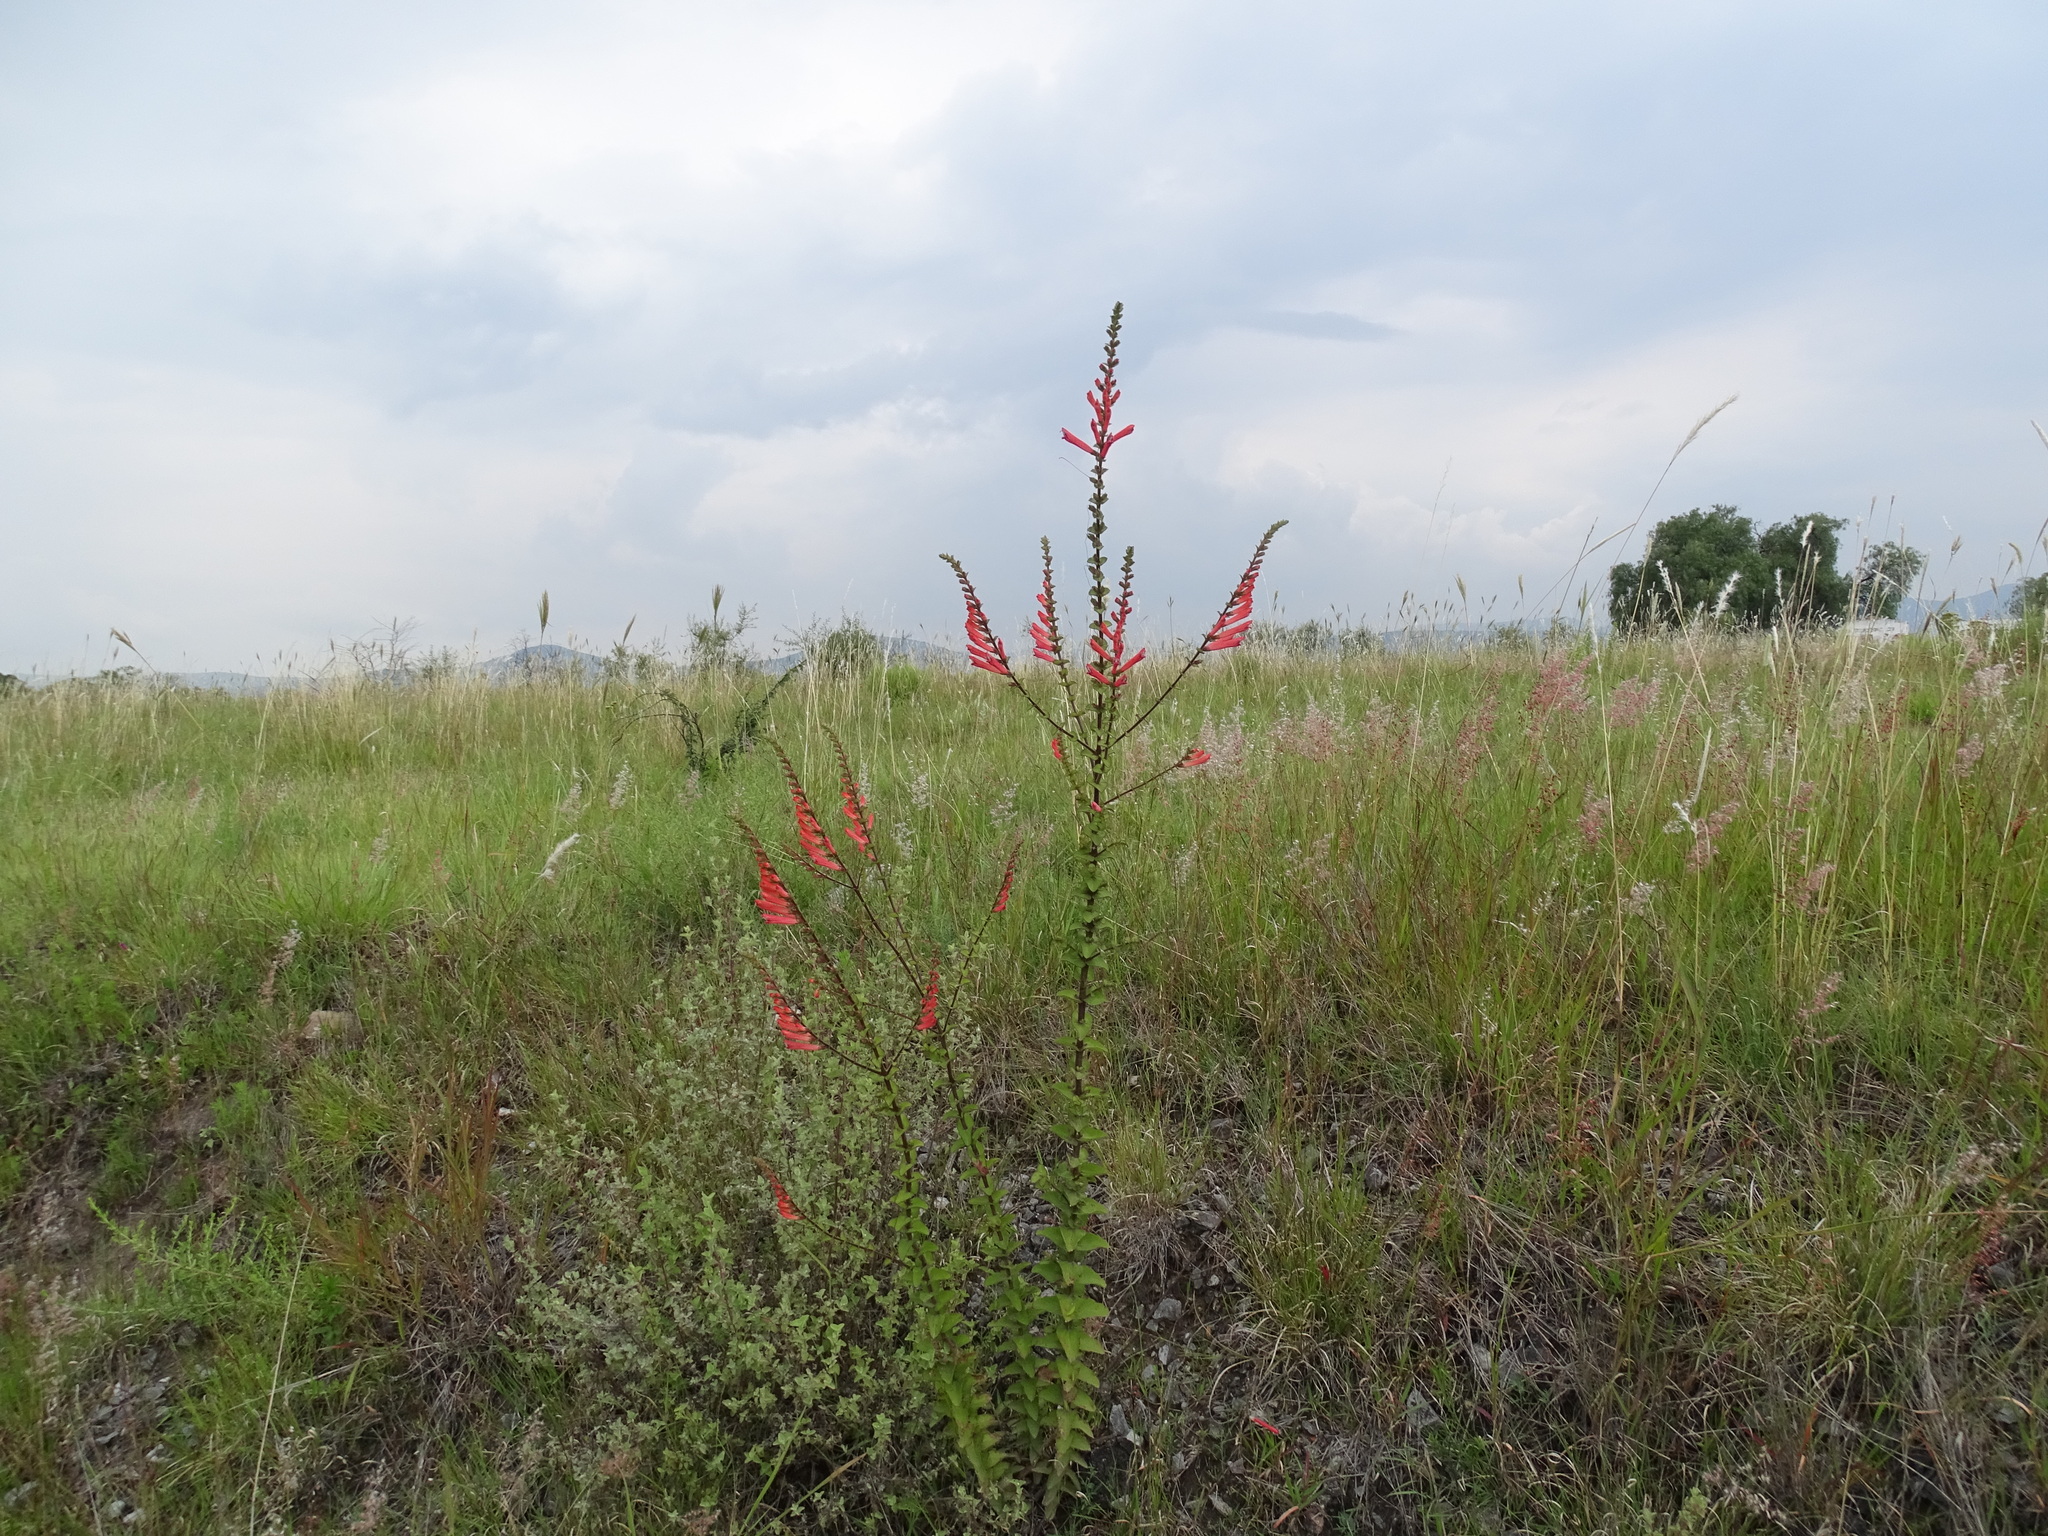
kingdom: Plantae
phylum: Tracheophyta
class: Magnoliopsida
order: Lamiales
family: Orobanchaceae
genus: Lamourouxia
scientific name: Lamourouxia viscosa
